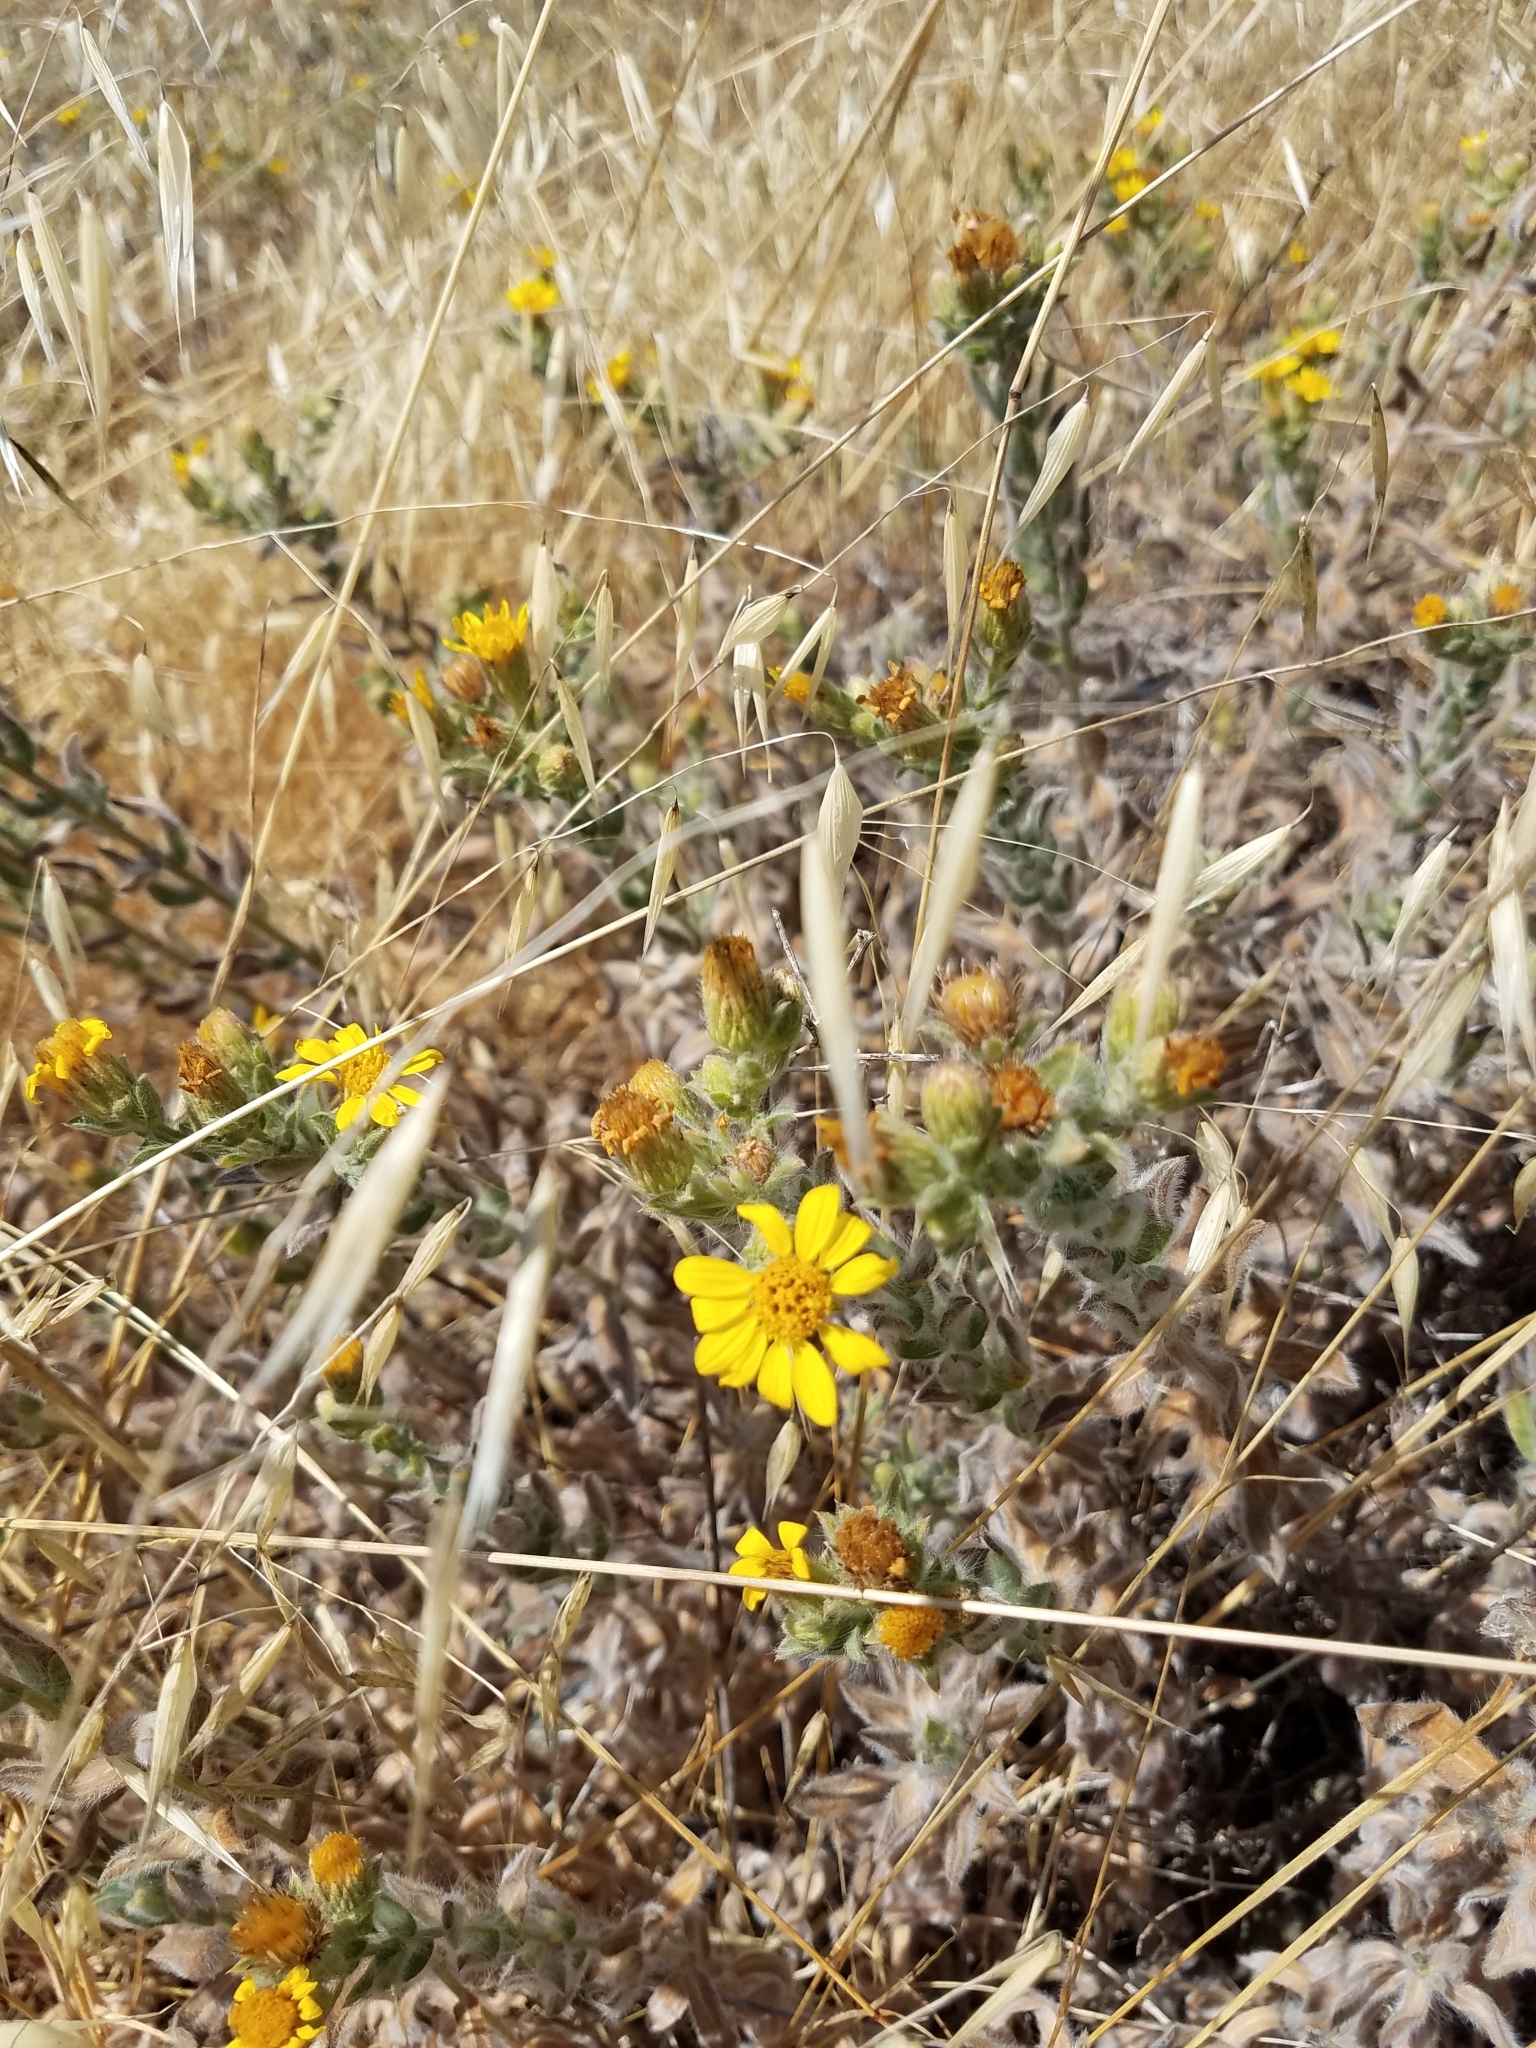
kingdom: Plantae
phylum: Tracheophyta
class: Magnoliopsida
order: Asterales
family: Asteraceae
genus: Heterotheca
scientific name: Heterotheca villosissima
